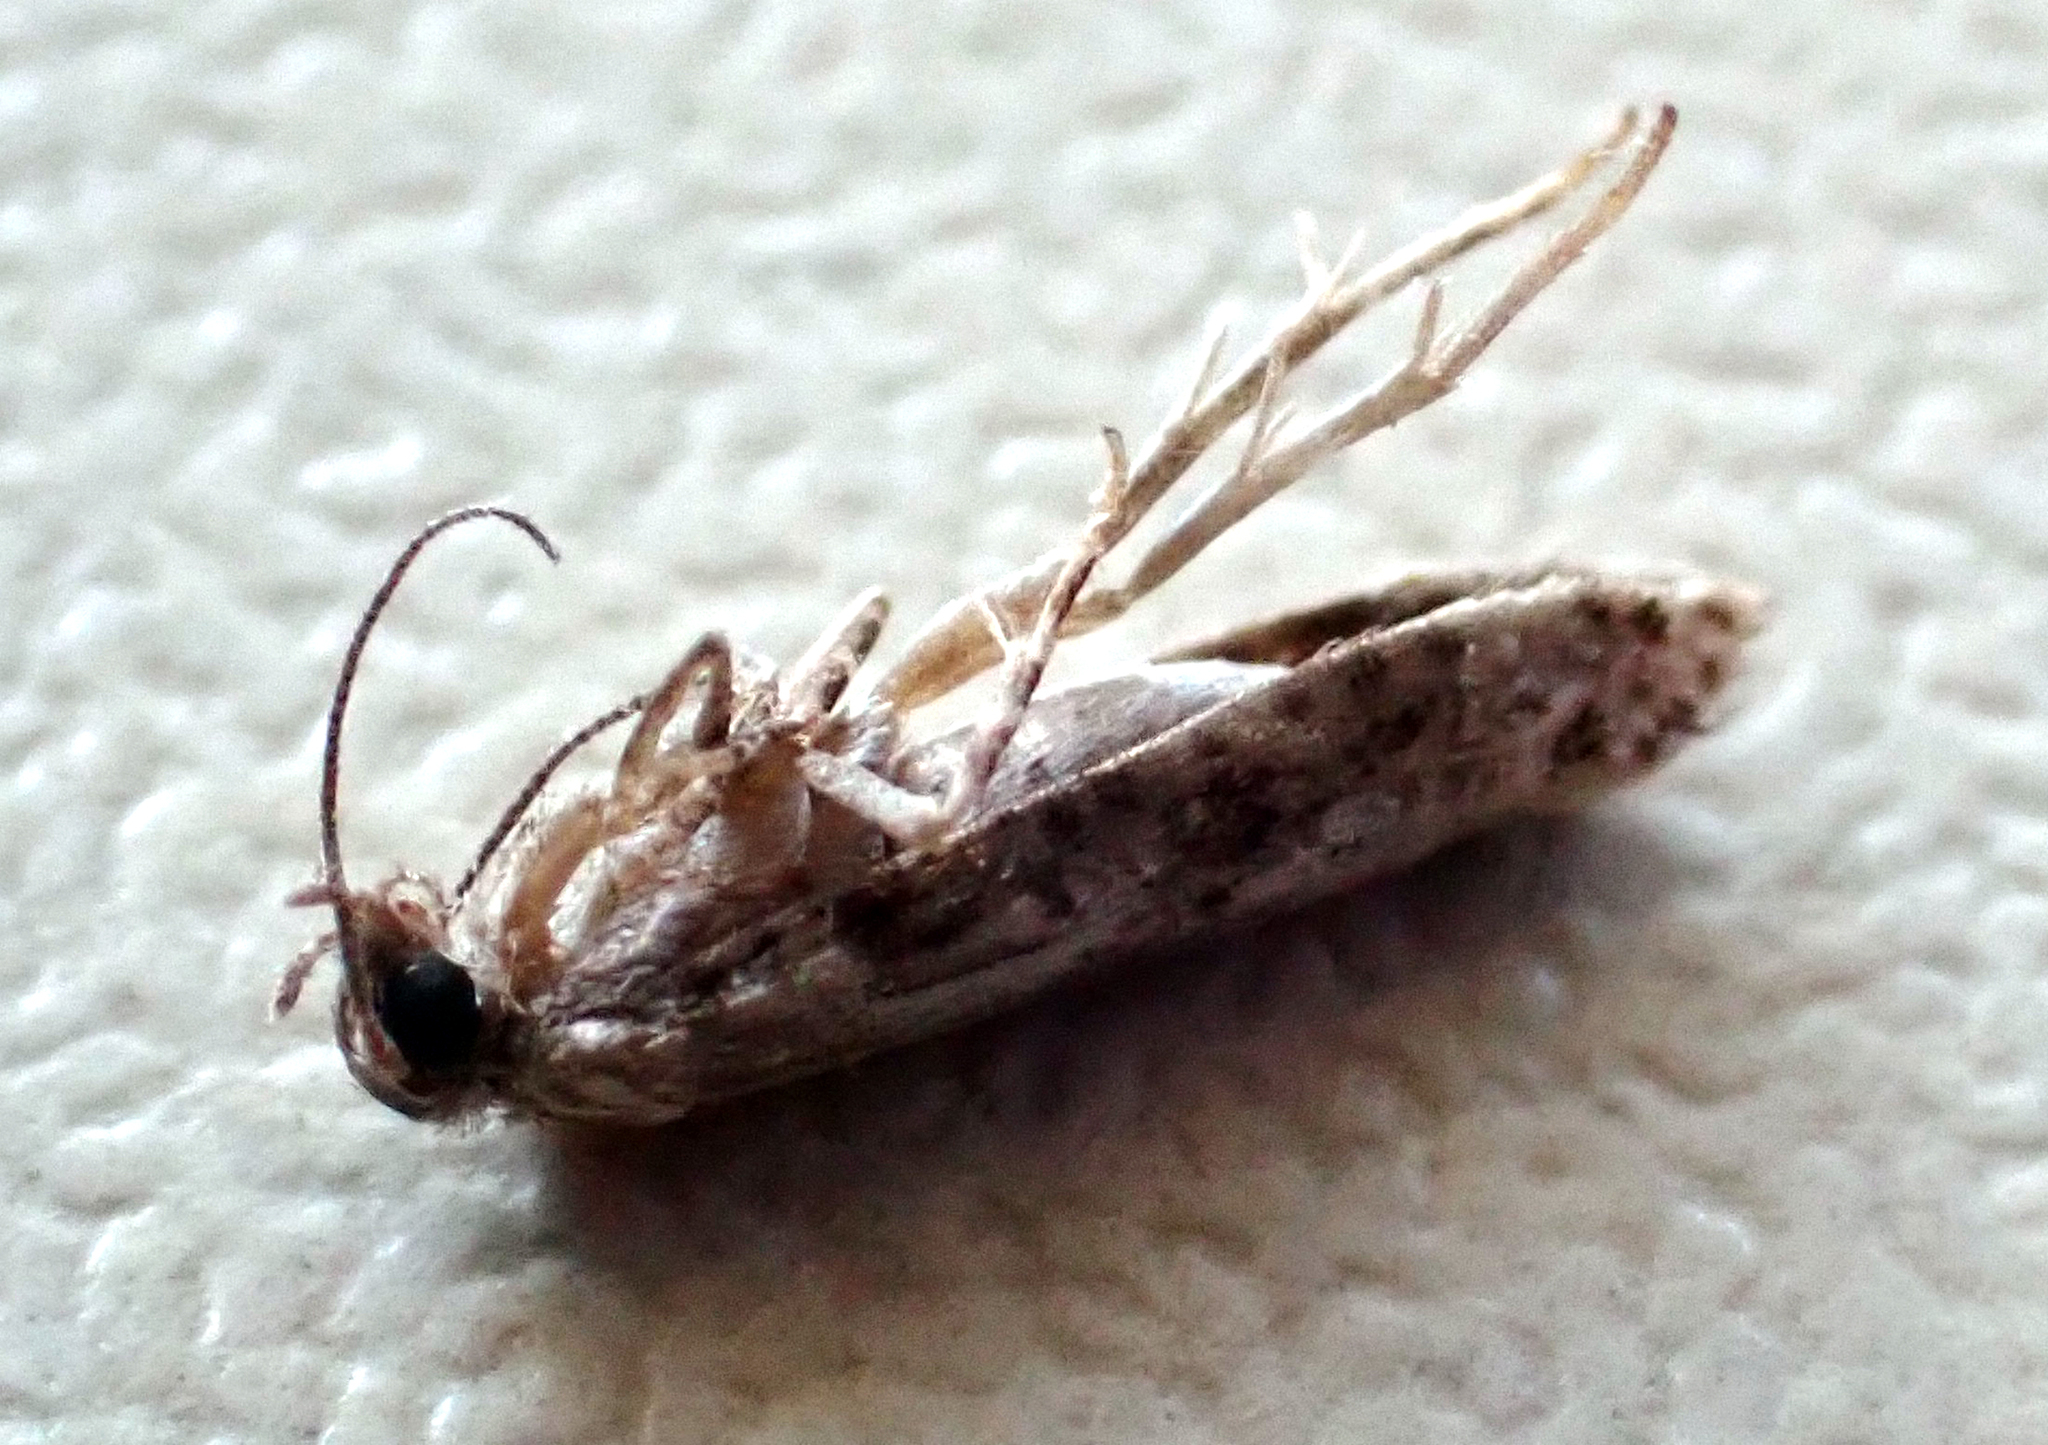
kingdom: Animalia
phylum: Arthropoda
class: Insecta
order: Lepidoptera
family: Praydidae
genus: Prays
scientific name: Prays nephelomima
